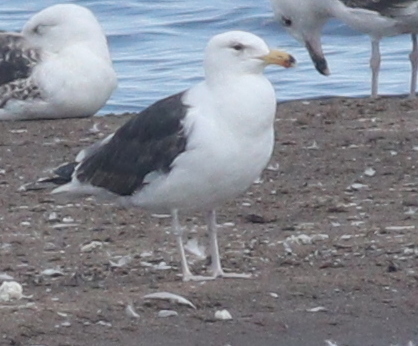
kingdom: Animalia
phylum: Chordata
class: Aves
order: Charadriiformes
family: Laridae
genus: Larus
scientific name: Larus marinus
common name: Great black-backed gull
